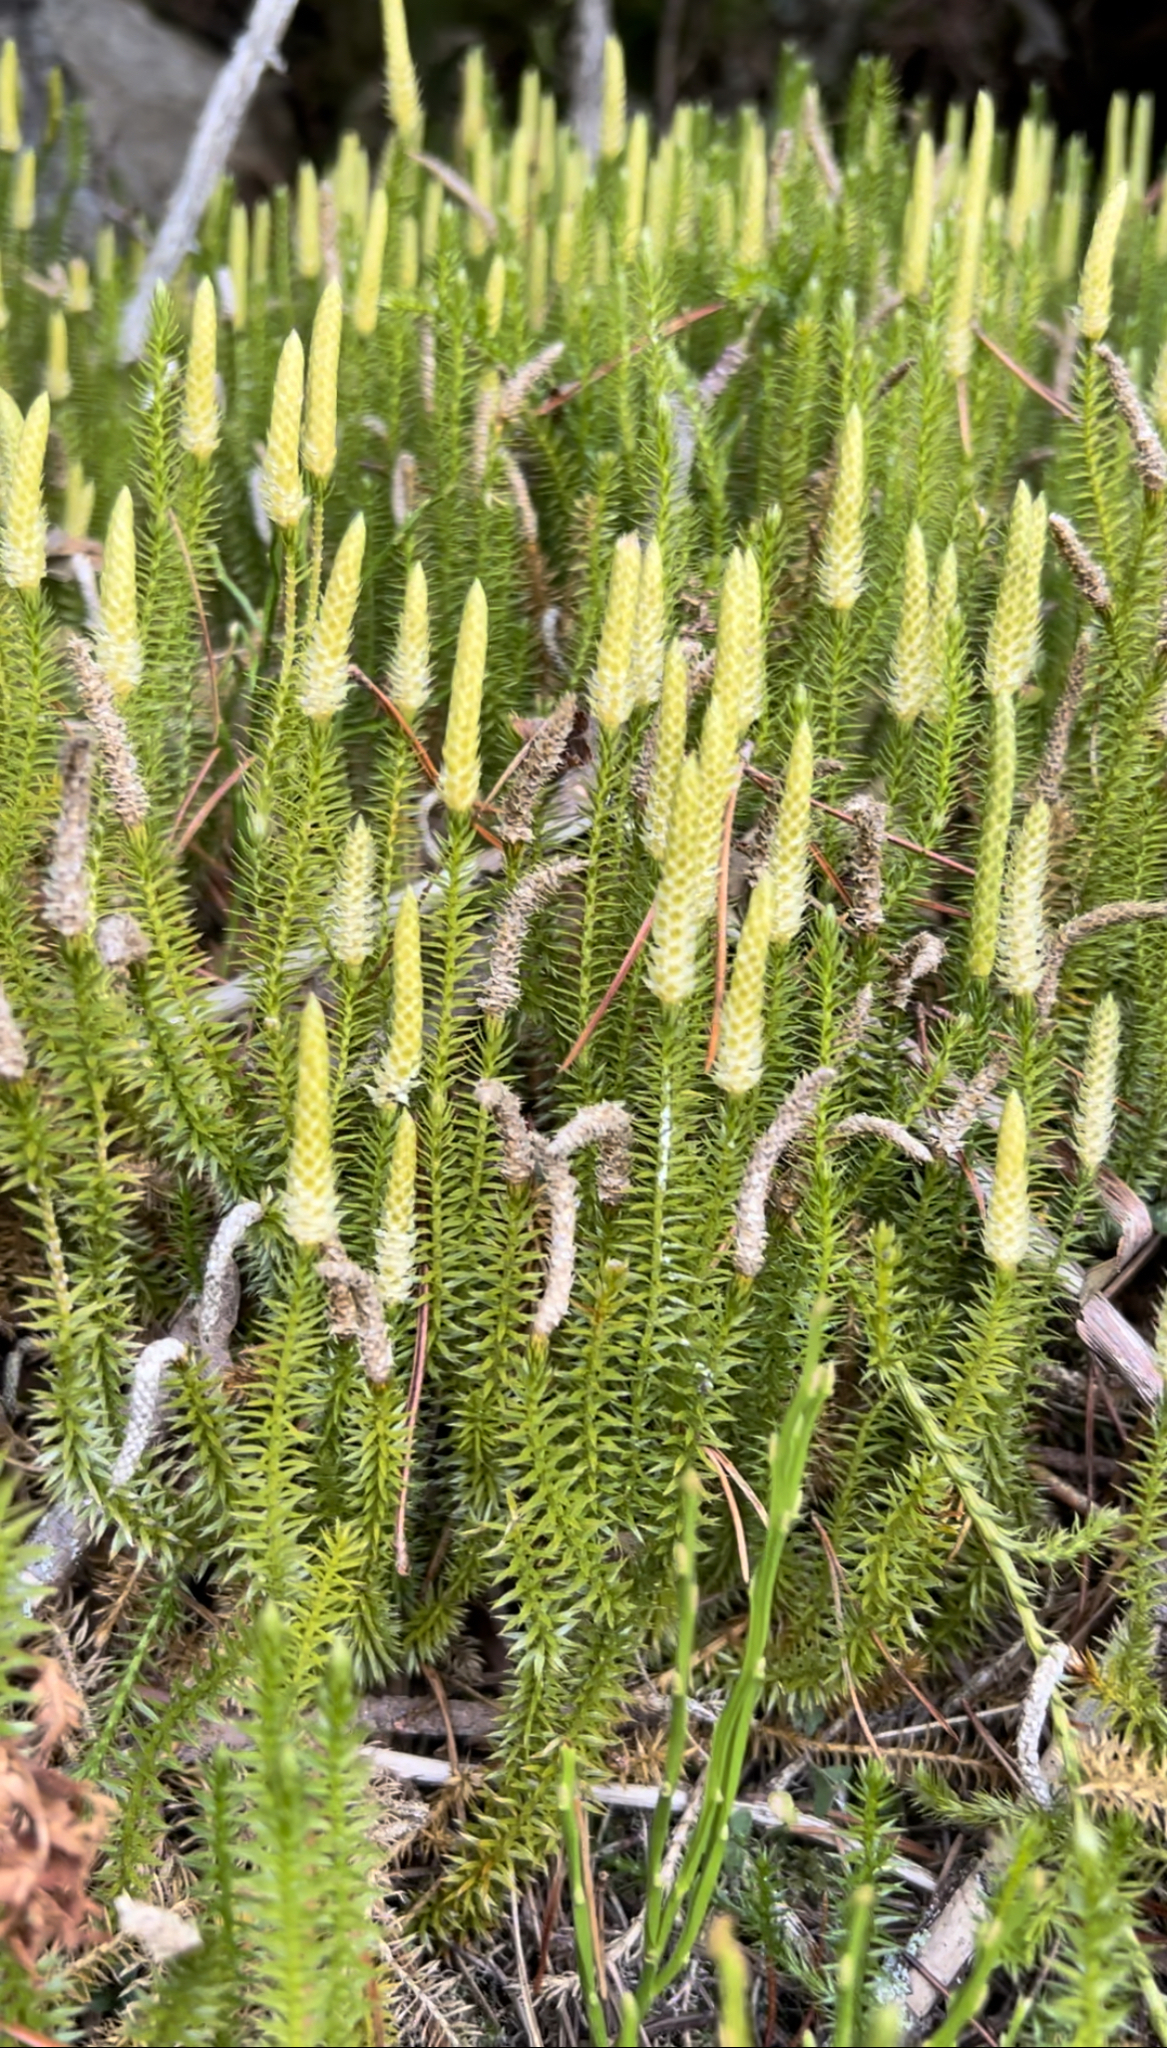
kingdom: Plantae
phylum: Tracheophyta
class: Lycopodiopsida
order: Lycopodiales
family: Lycopodiaceae
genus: Spinulum
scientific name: Spinulum annotinum
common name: Interrupted club-moss
